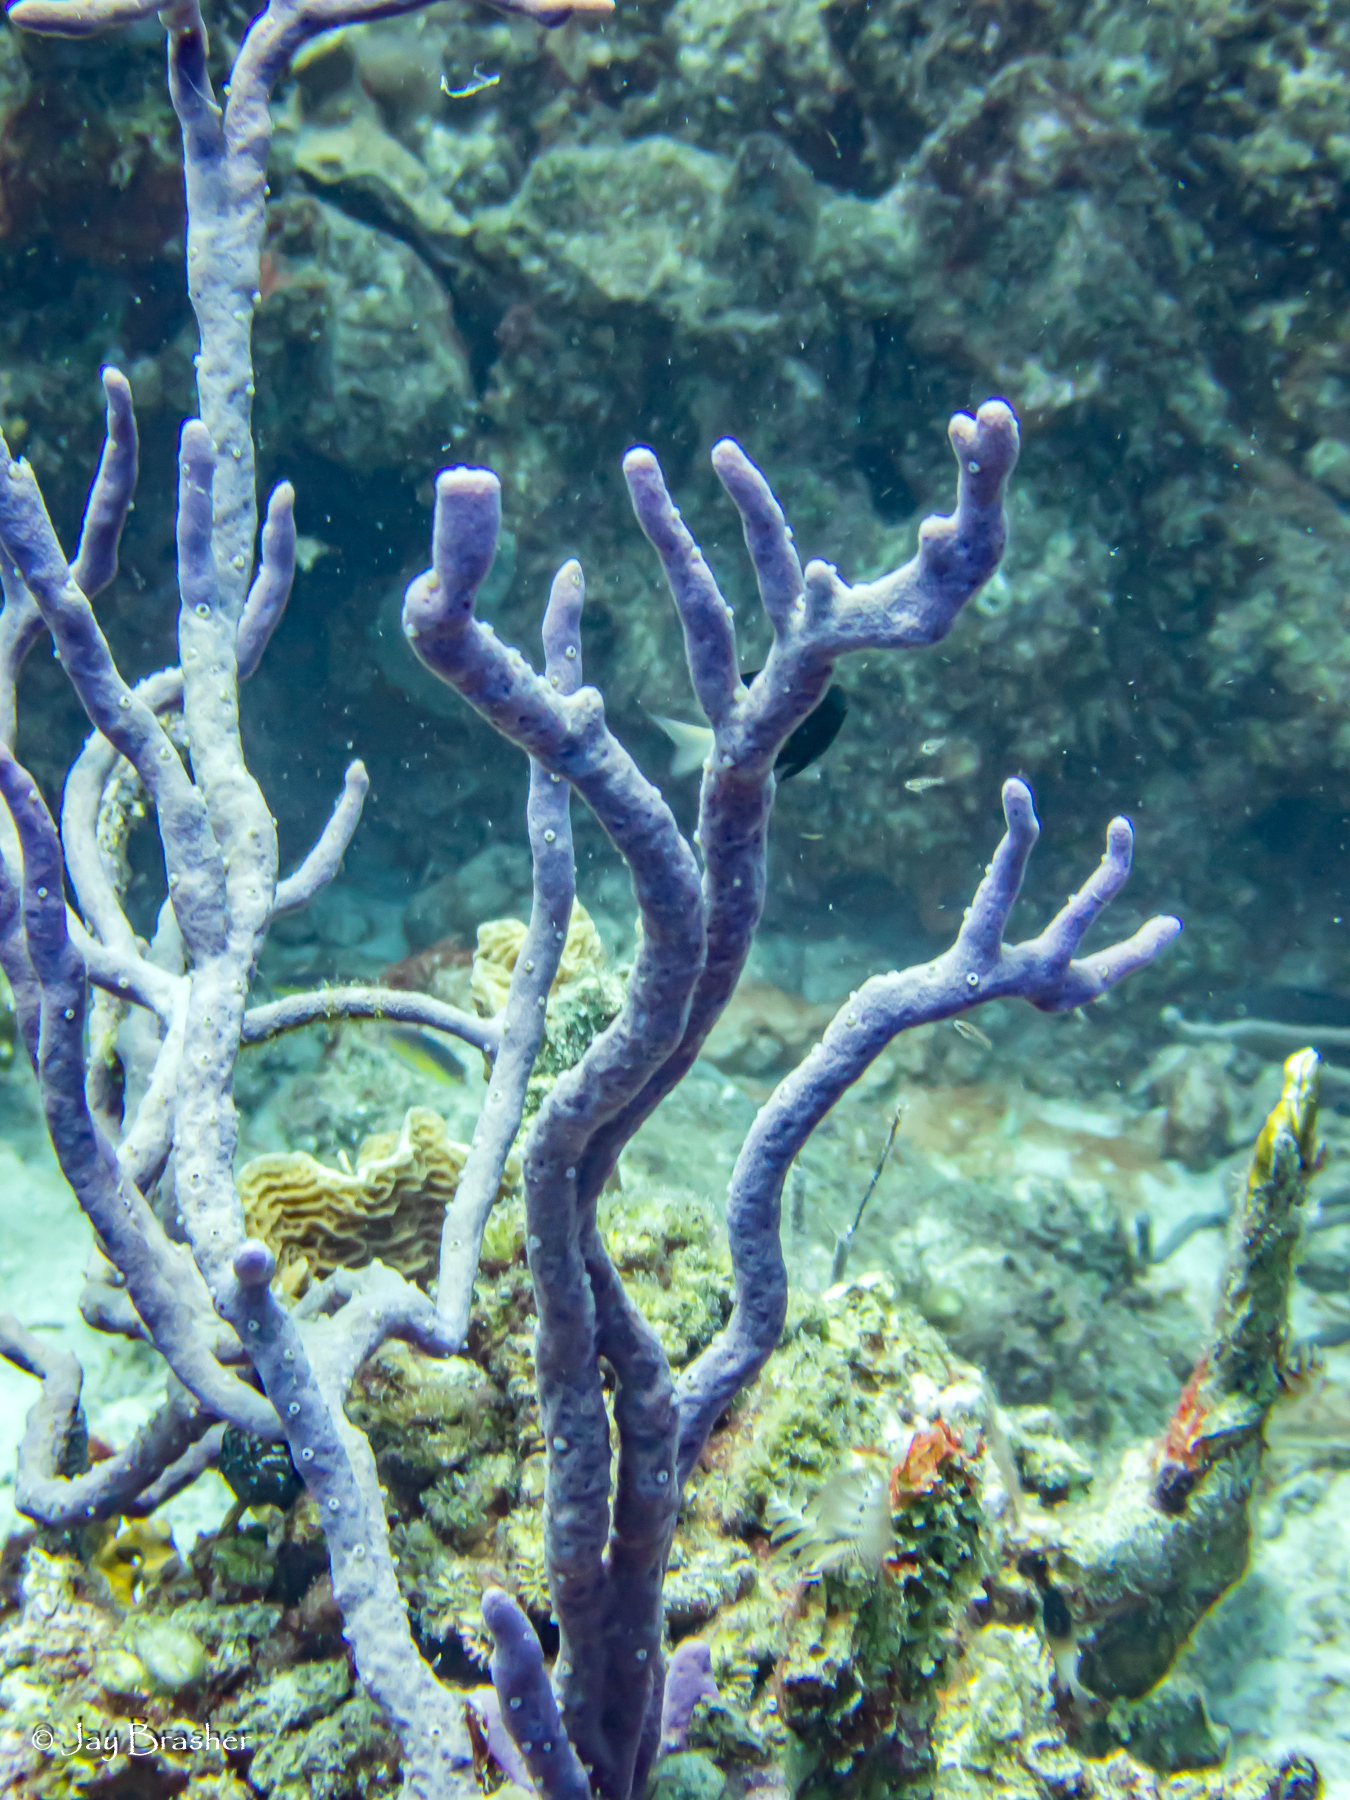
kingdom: Animalia
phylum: Porifera
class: Demospongiae
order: Verongiida
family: Aplysinidae
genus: Aplysina
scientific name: Aplysina cauliformis
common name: Branching candle sponge
